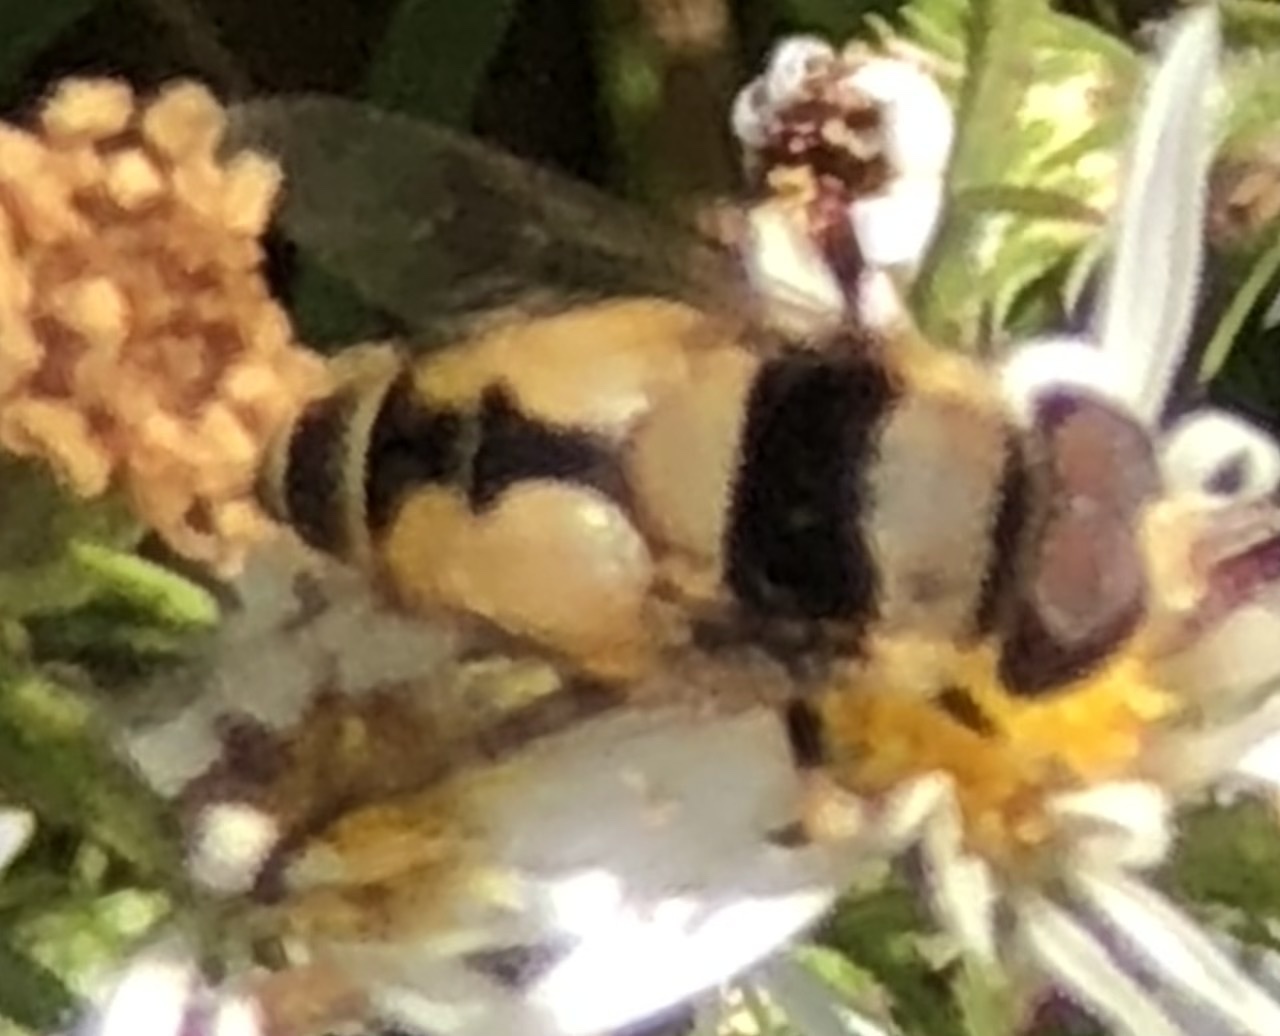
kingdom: Animalia
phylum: Arthropoda
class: Insecta
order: Diptera
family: Syrphidae
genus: Palpada
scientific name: Palpada pusilla
